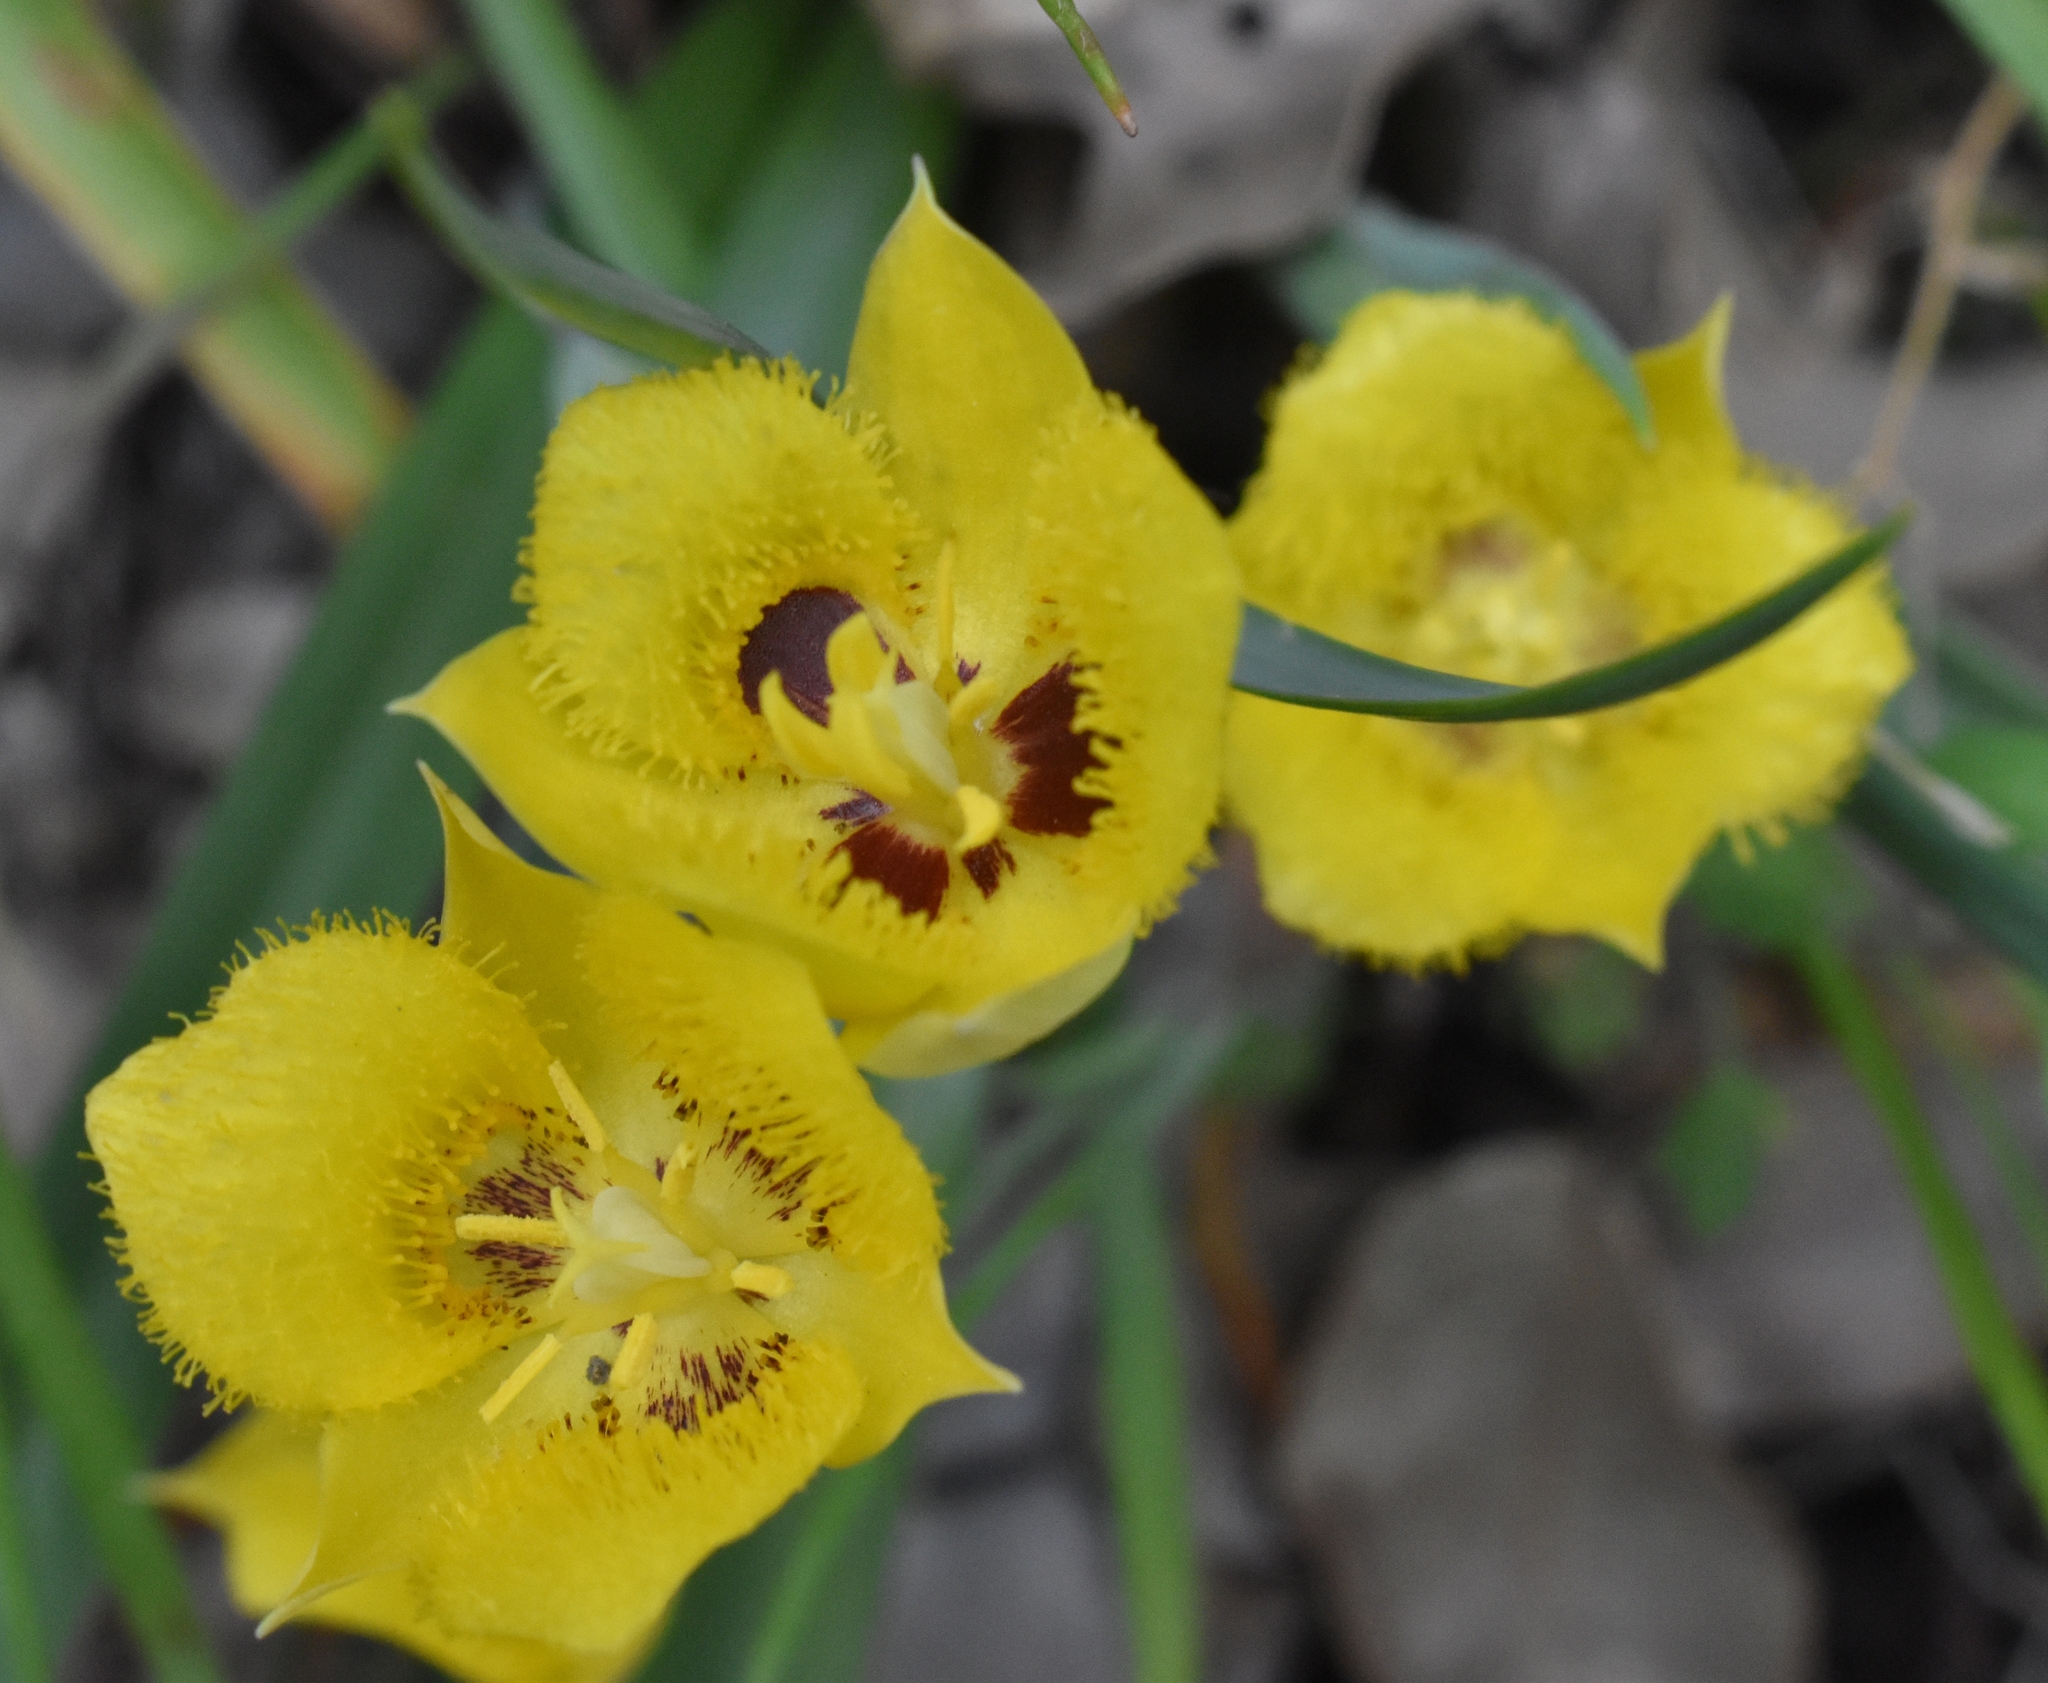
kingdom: Plantae
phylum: Tracheophyta
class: Liliopsida
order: Liliales
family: Liliaceae
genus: Calochortus
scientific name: Calochortus monophyllus
